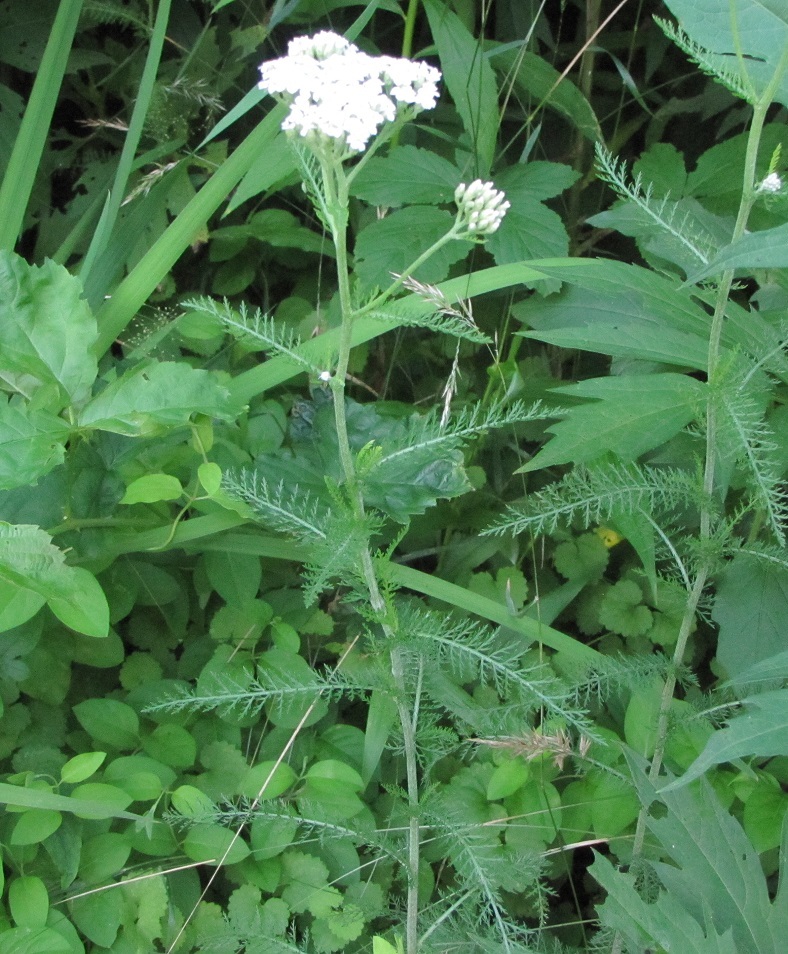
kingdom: Plantae
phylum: Tracheophyta
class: Magnoliopsida
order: Asterales
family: Asteraceae
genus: Achillea
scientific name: Achillea millefolium
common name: Yarrow
